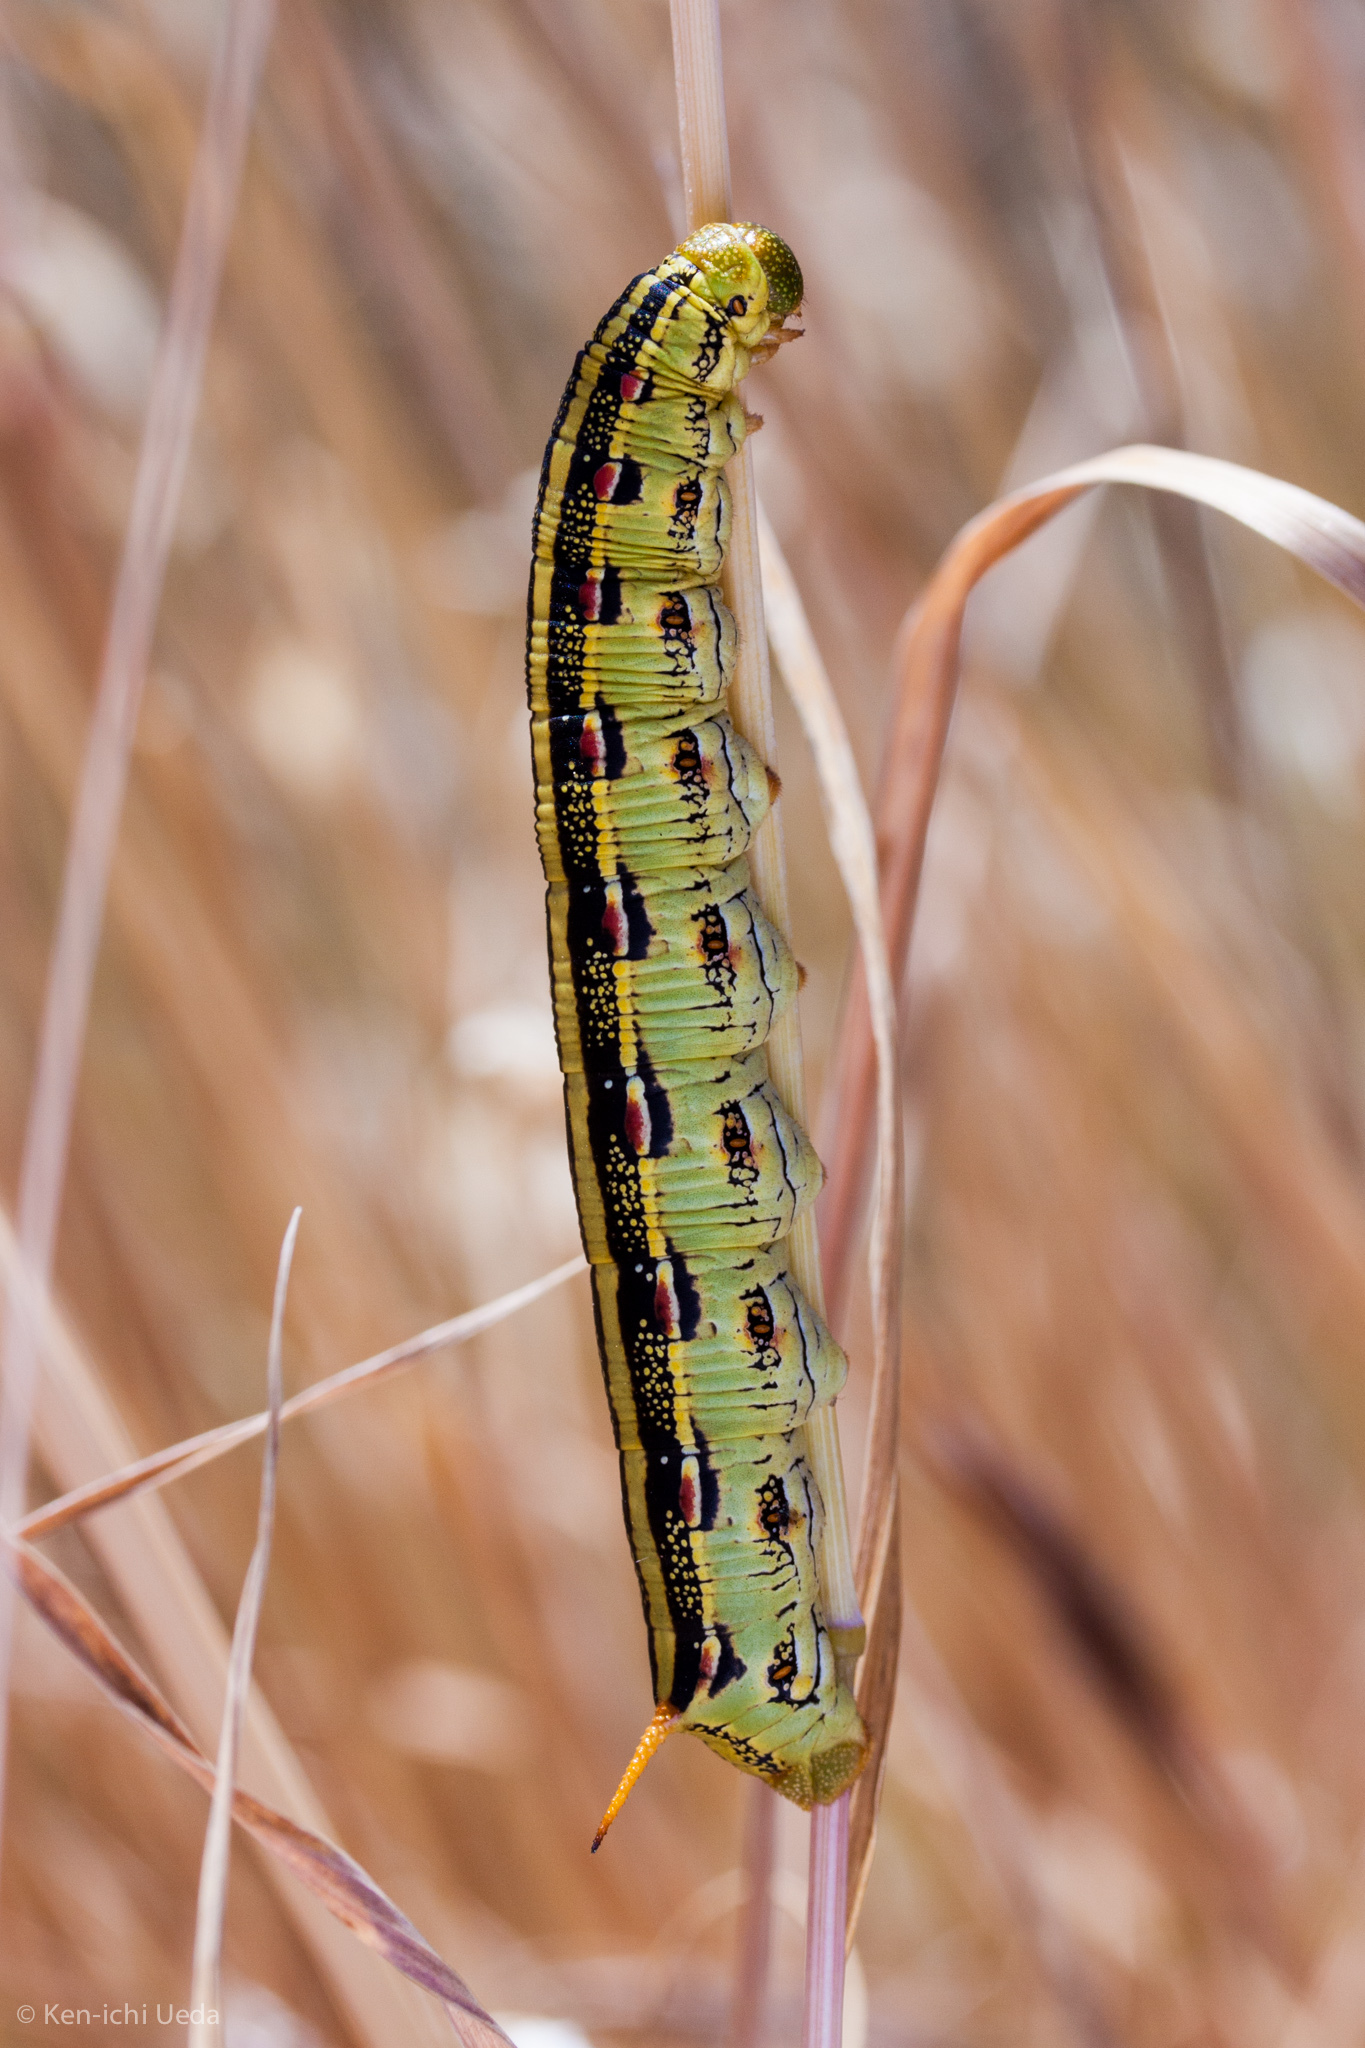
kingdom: Animalia
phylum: Arthropoda
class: Insecta
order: Lepidoptera
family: Sphingidae
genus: Hyles
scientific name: Hyles lineata
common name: White-lined sphinx
